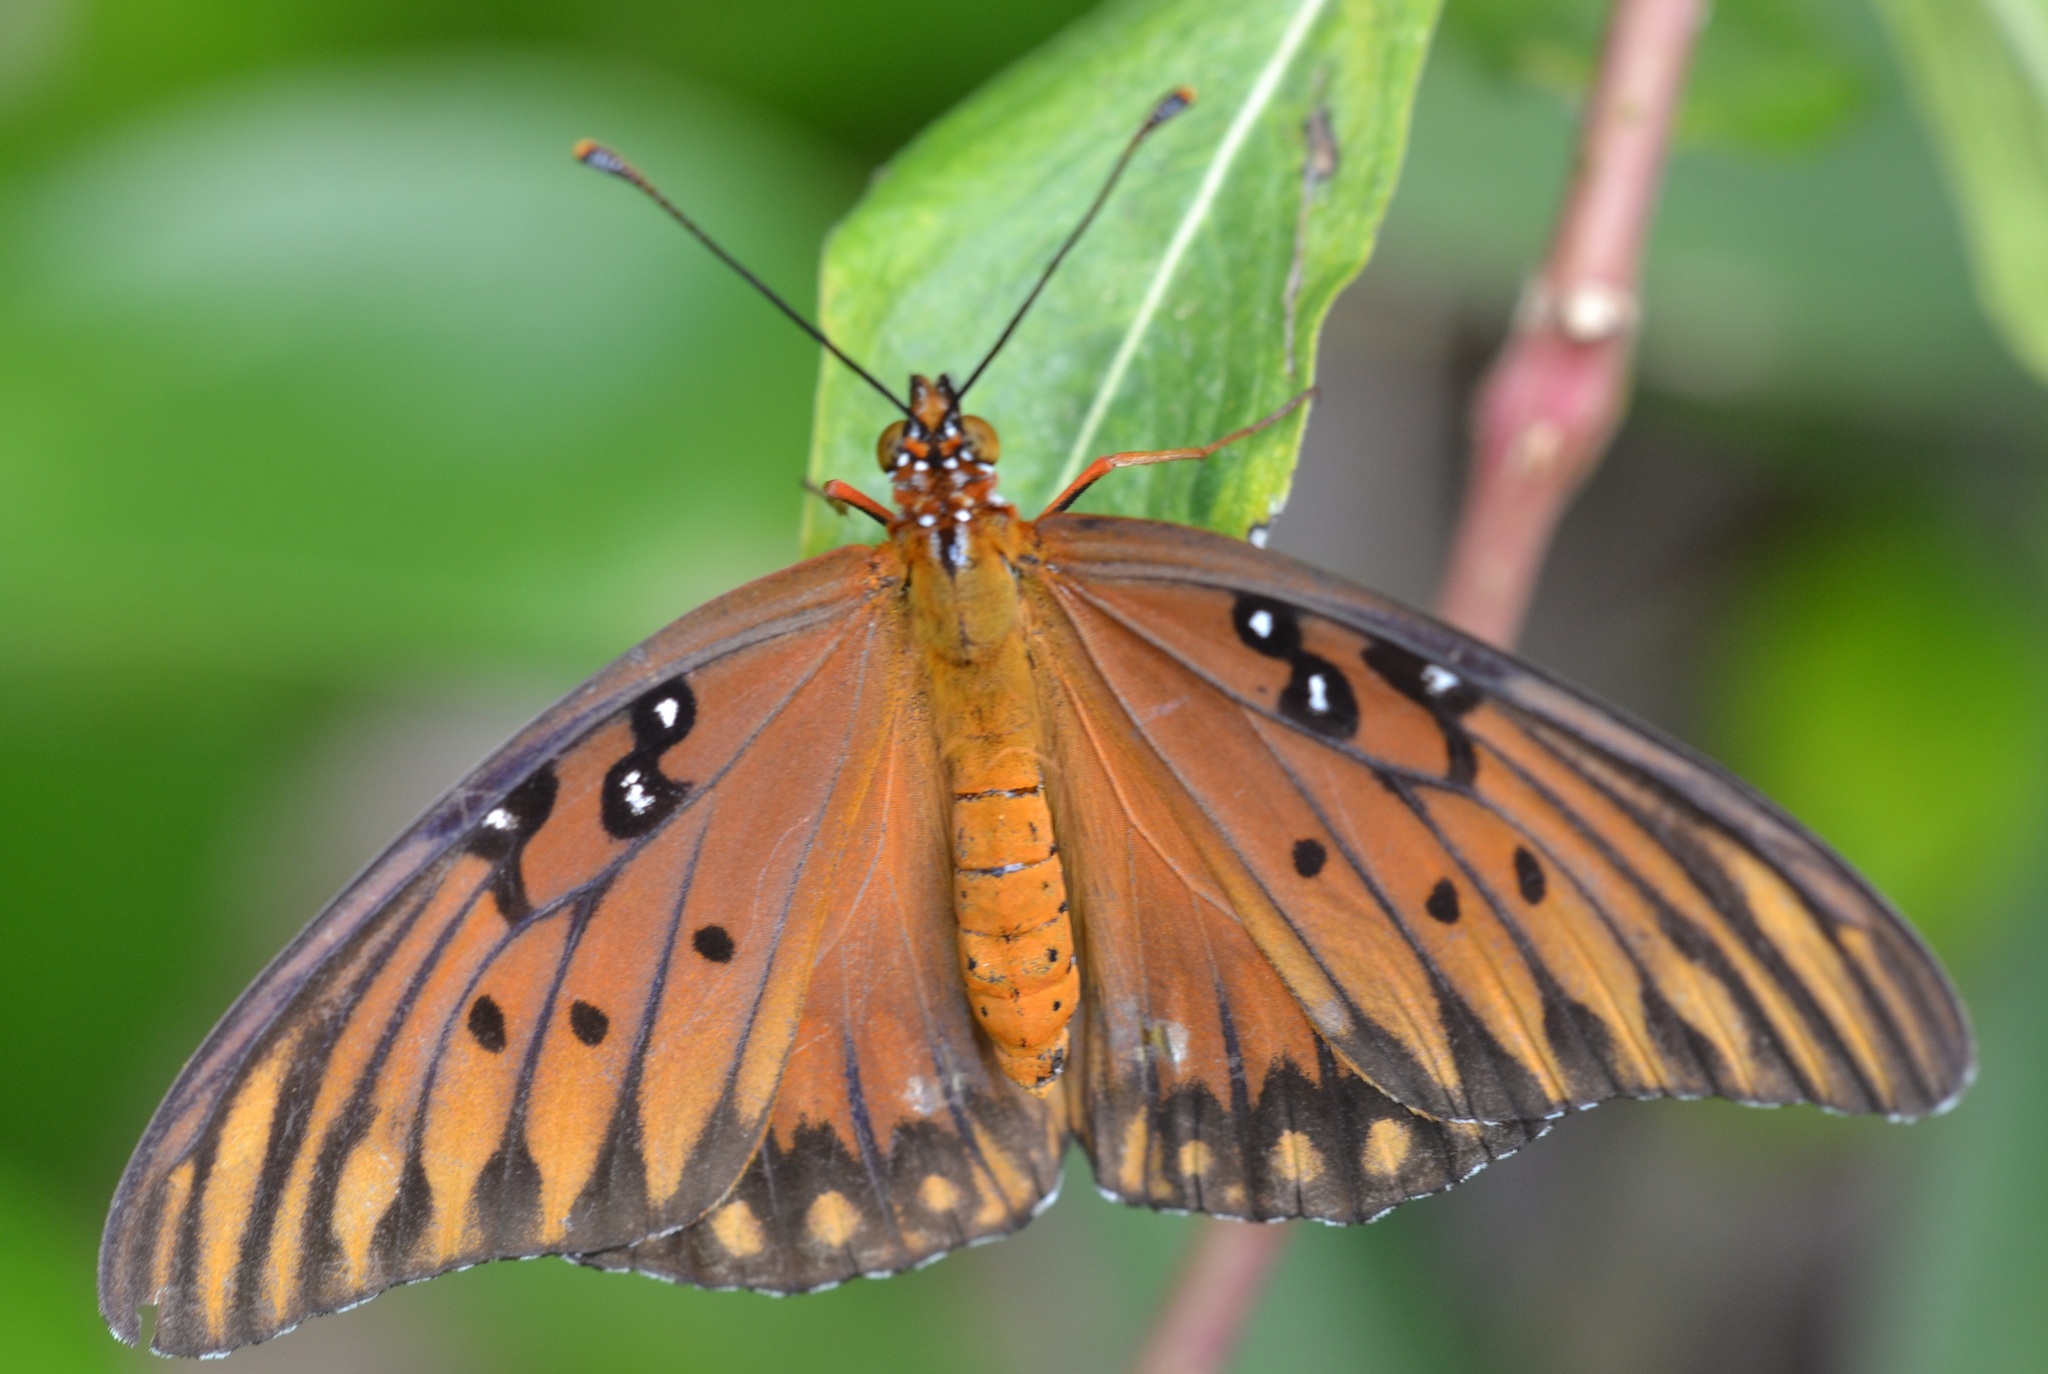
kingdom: Animalia
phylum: Arthropoda
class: Insecta
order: Lepidoptera
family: Nymphalidae
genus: Dione
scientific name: Dione vanillae
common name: Gulf fritillary
